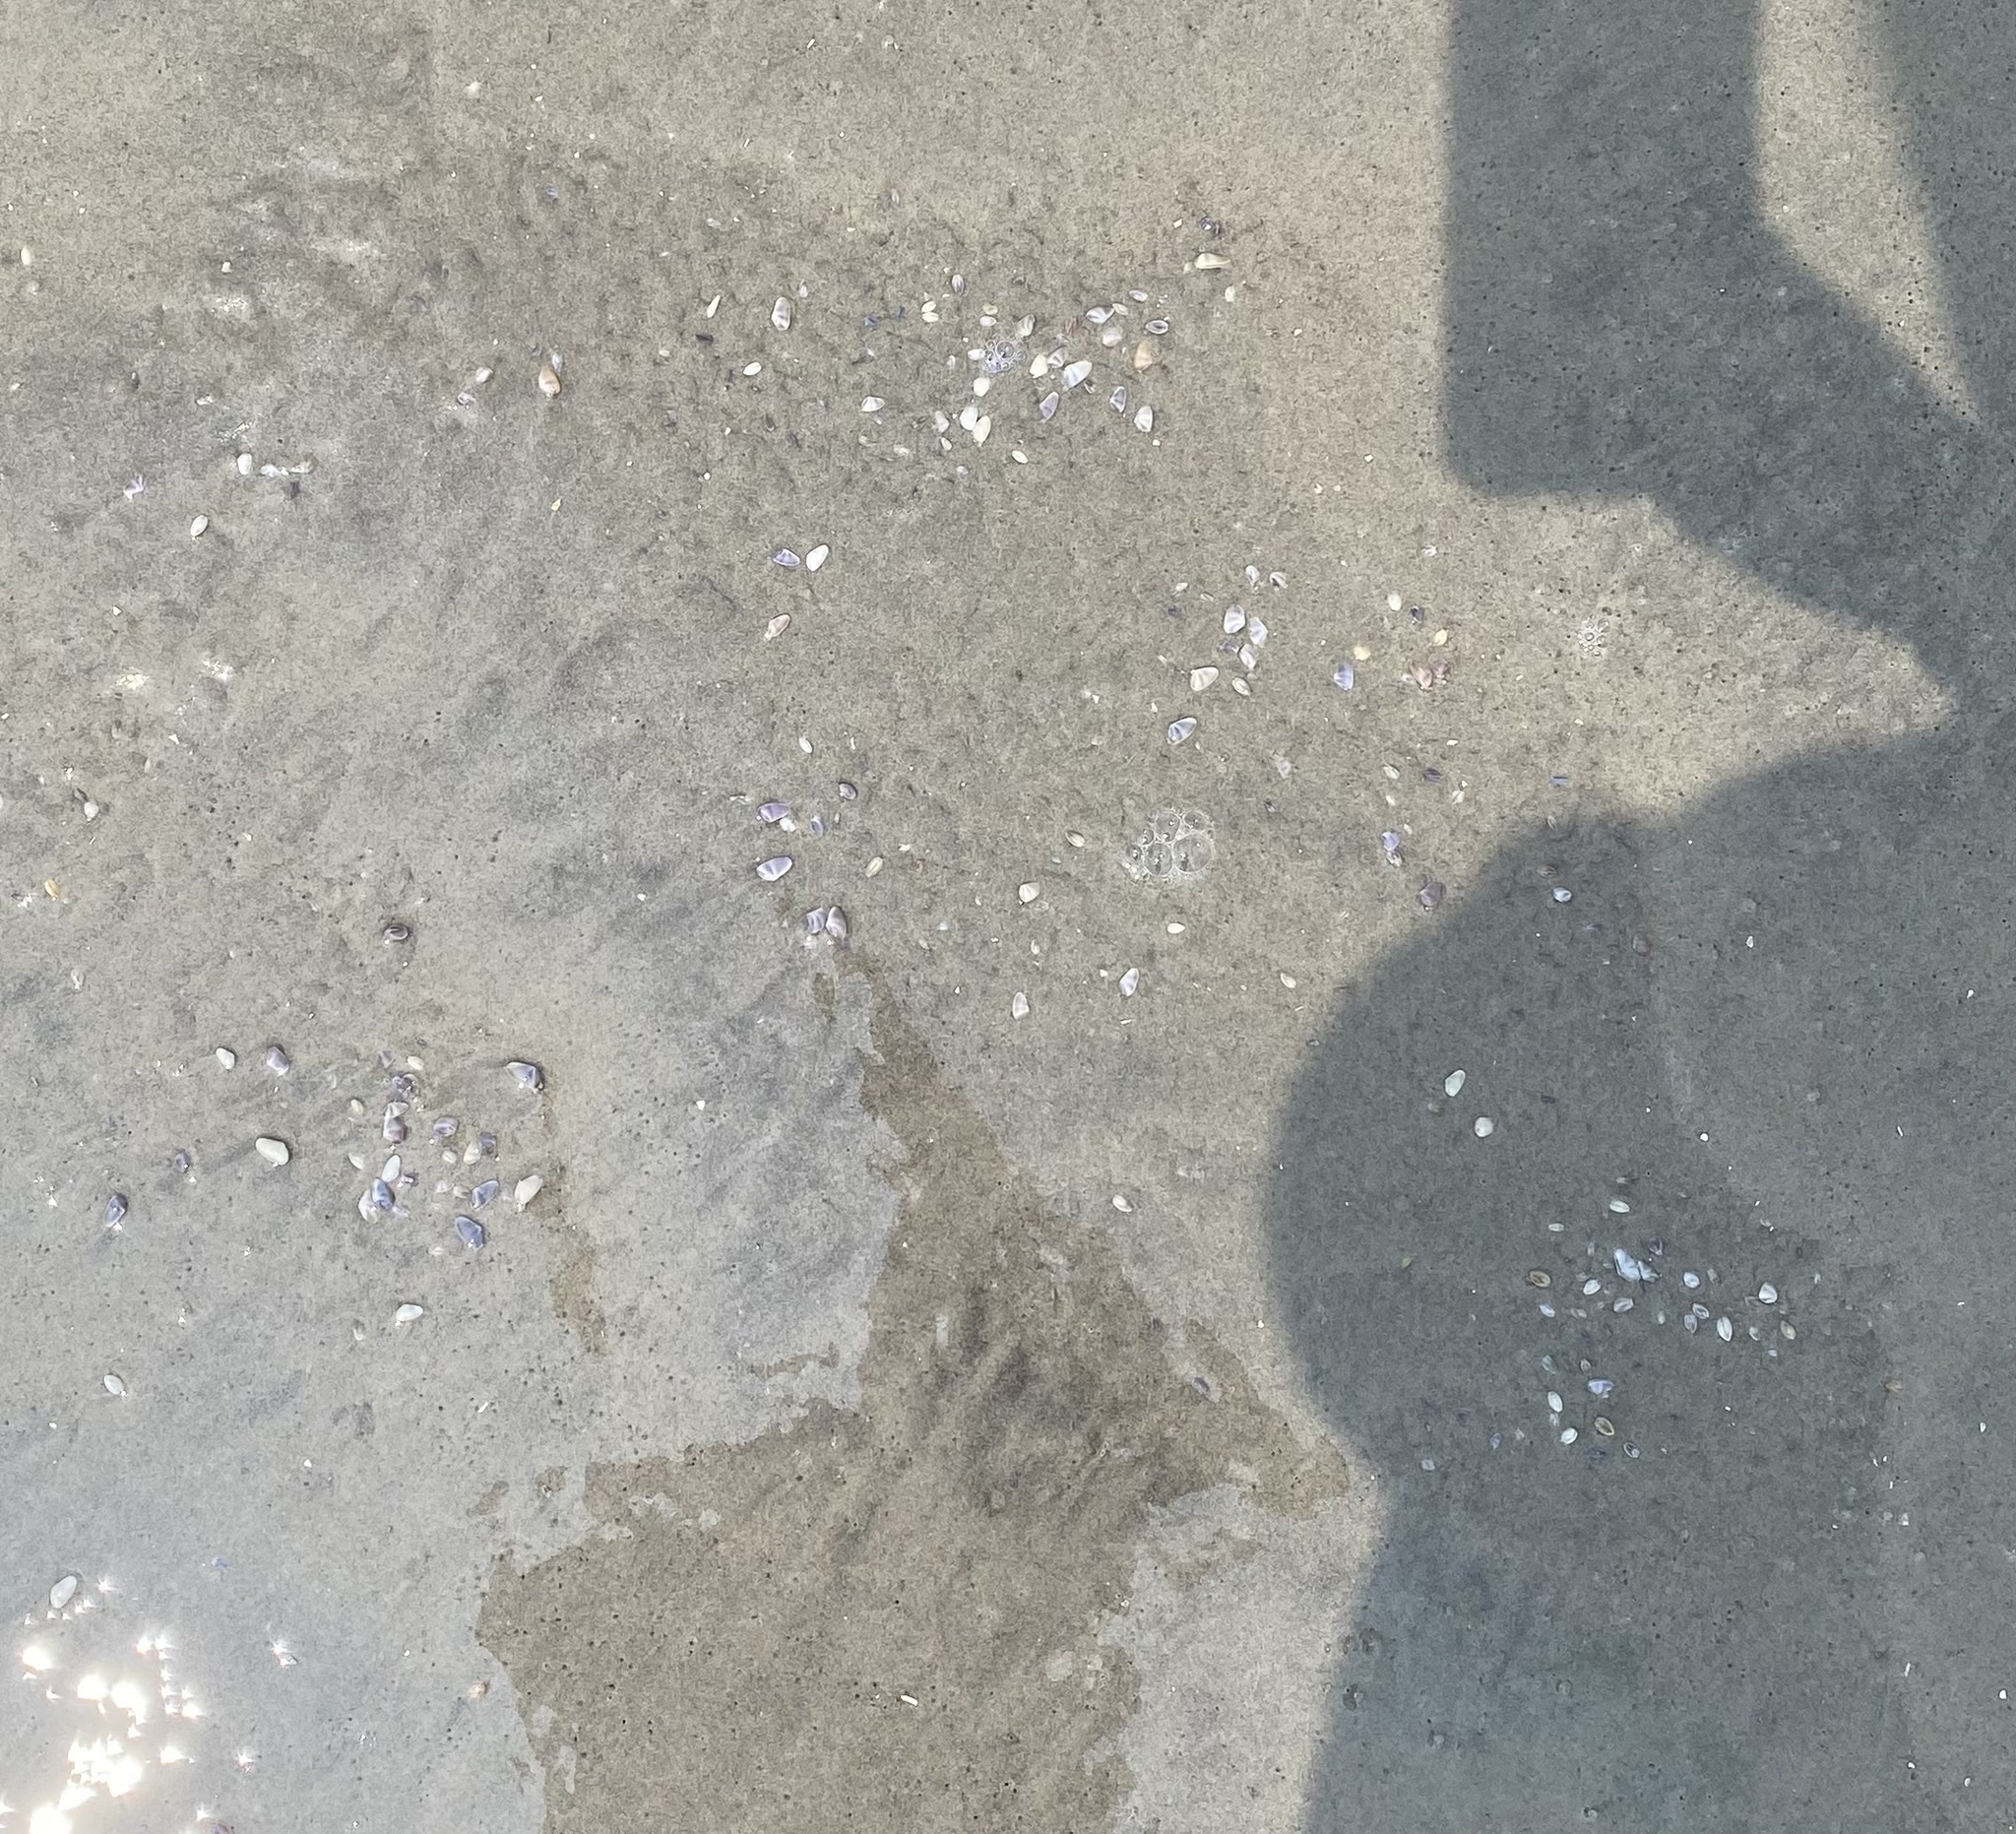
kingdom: Animalia
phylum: Mollusca
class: Bivalvia
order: Cardiida
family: Donacidae
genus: Donax
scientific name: Donax fossor
